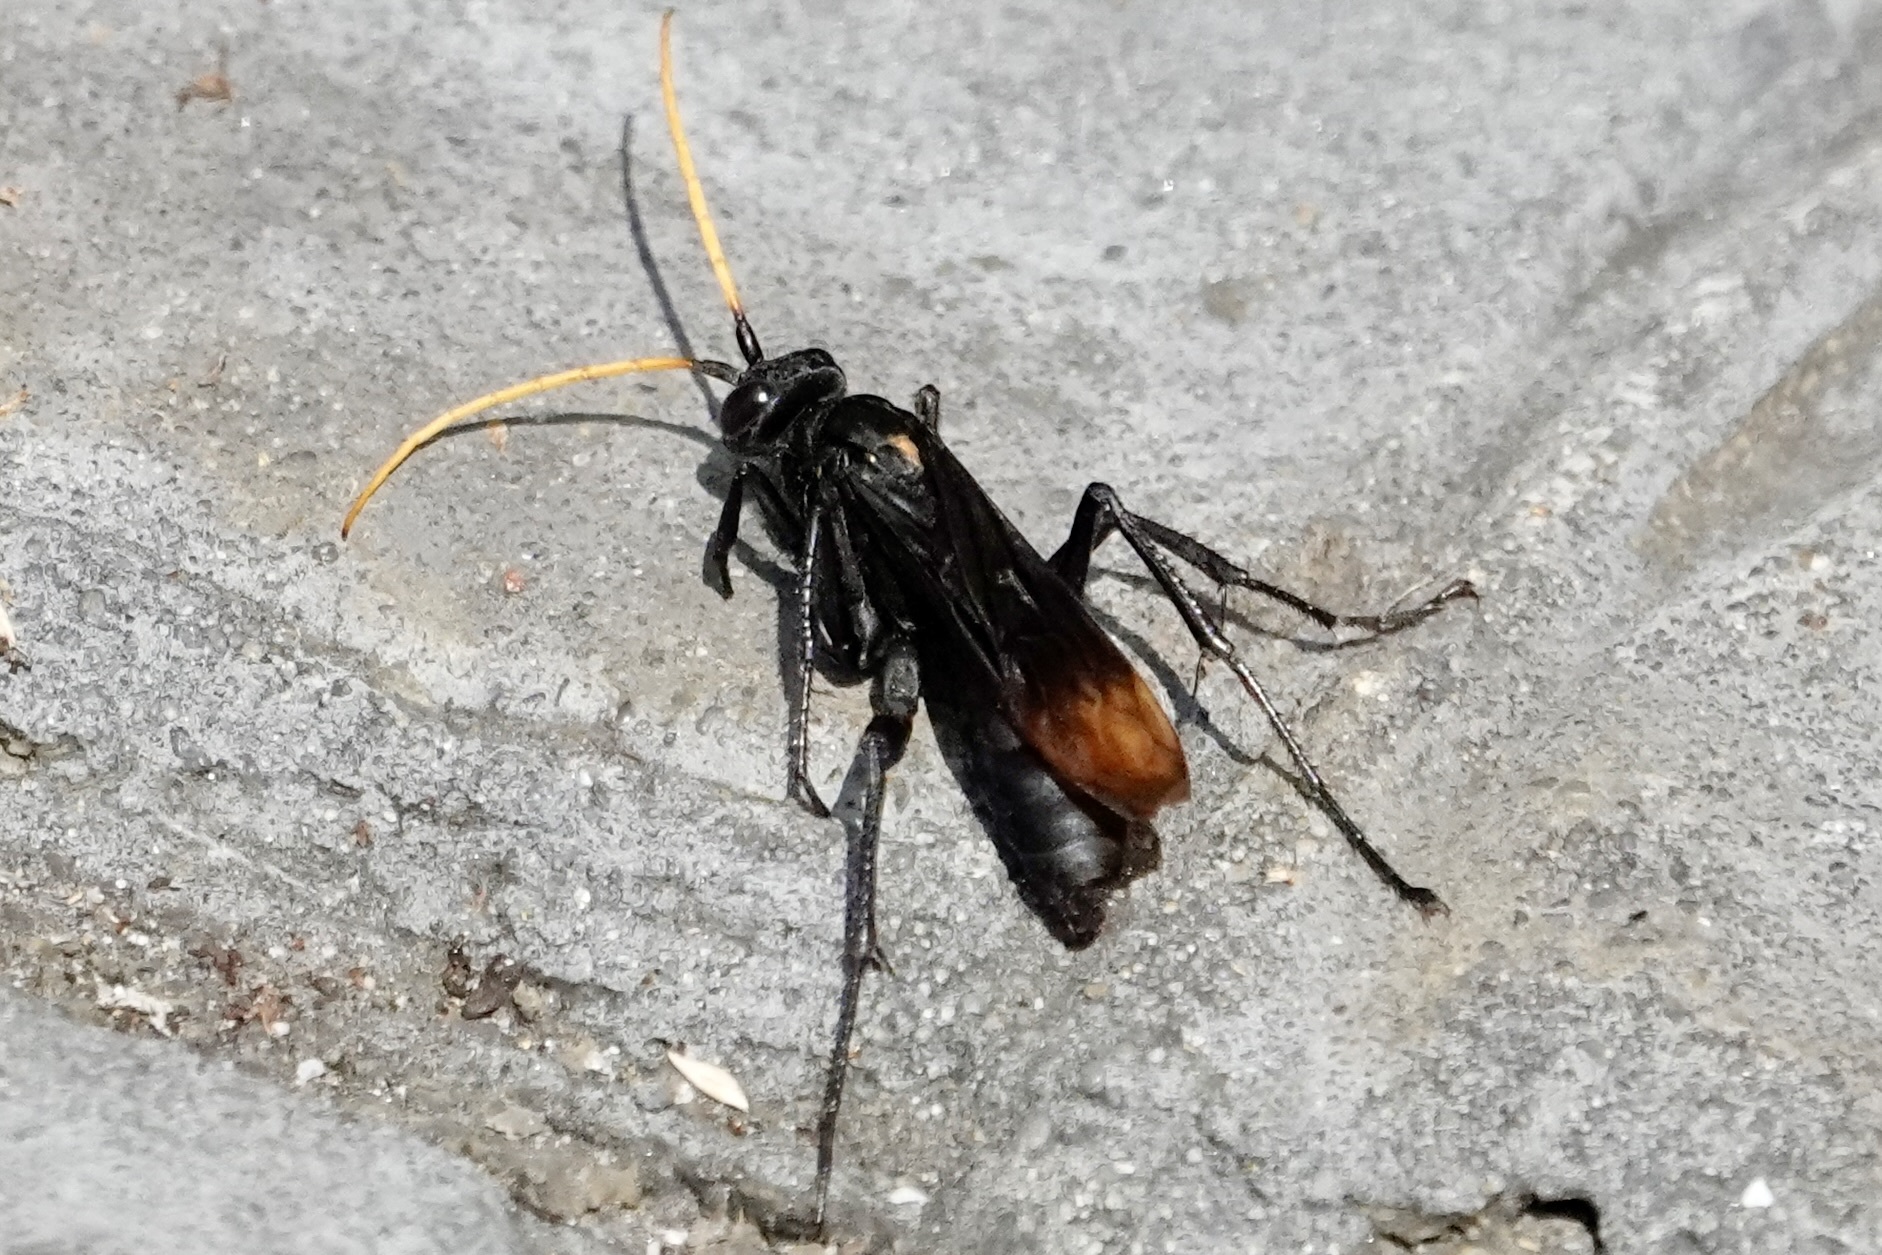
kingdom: Animalia
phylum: Arthropoda
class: Insecta
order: Hymenoptera
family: Pompilidae
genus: Entypus
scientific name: Entypus unifasciatus
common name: Eastern tawny-horned spider wasp
